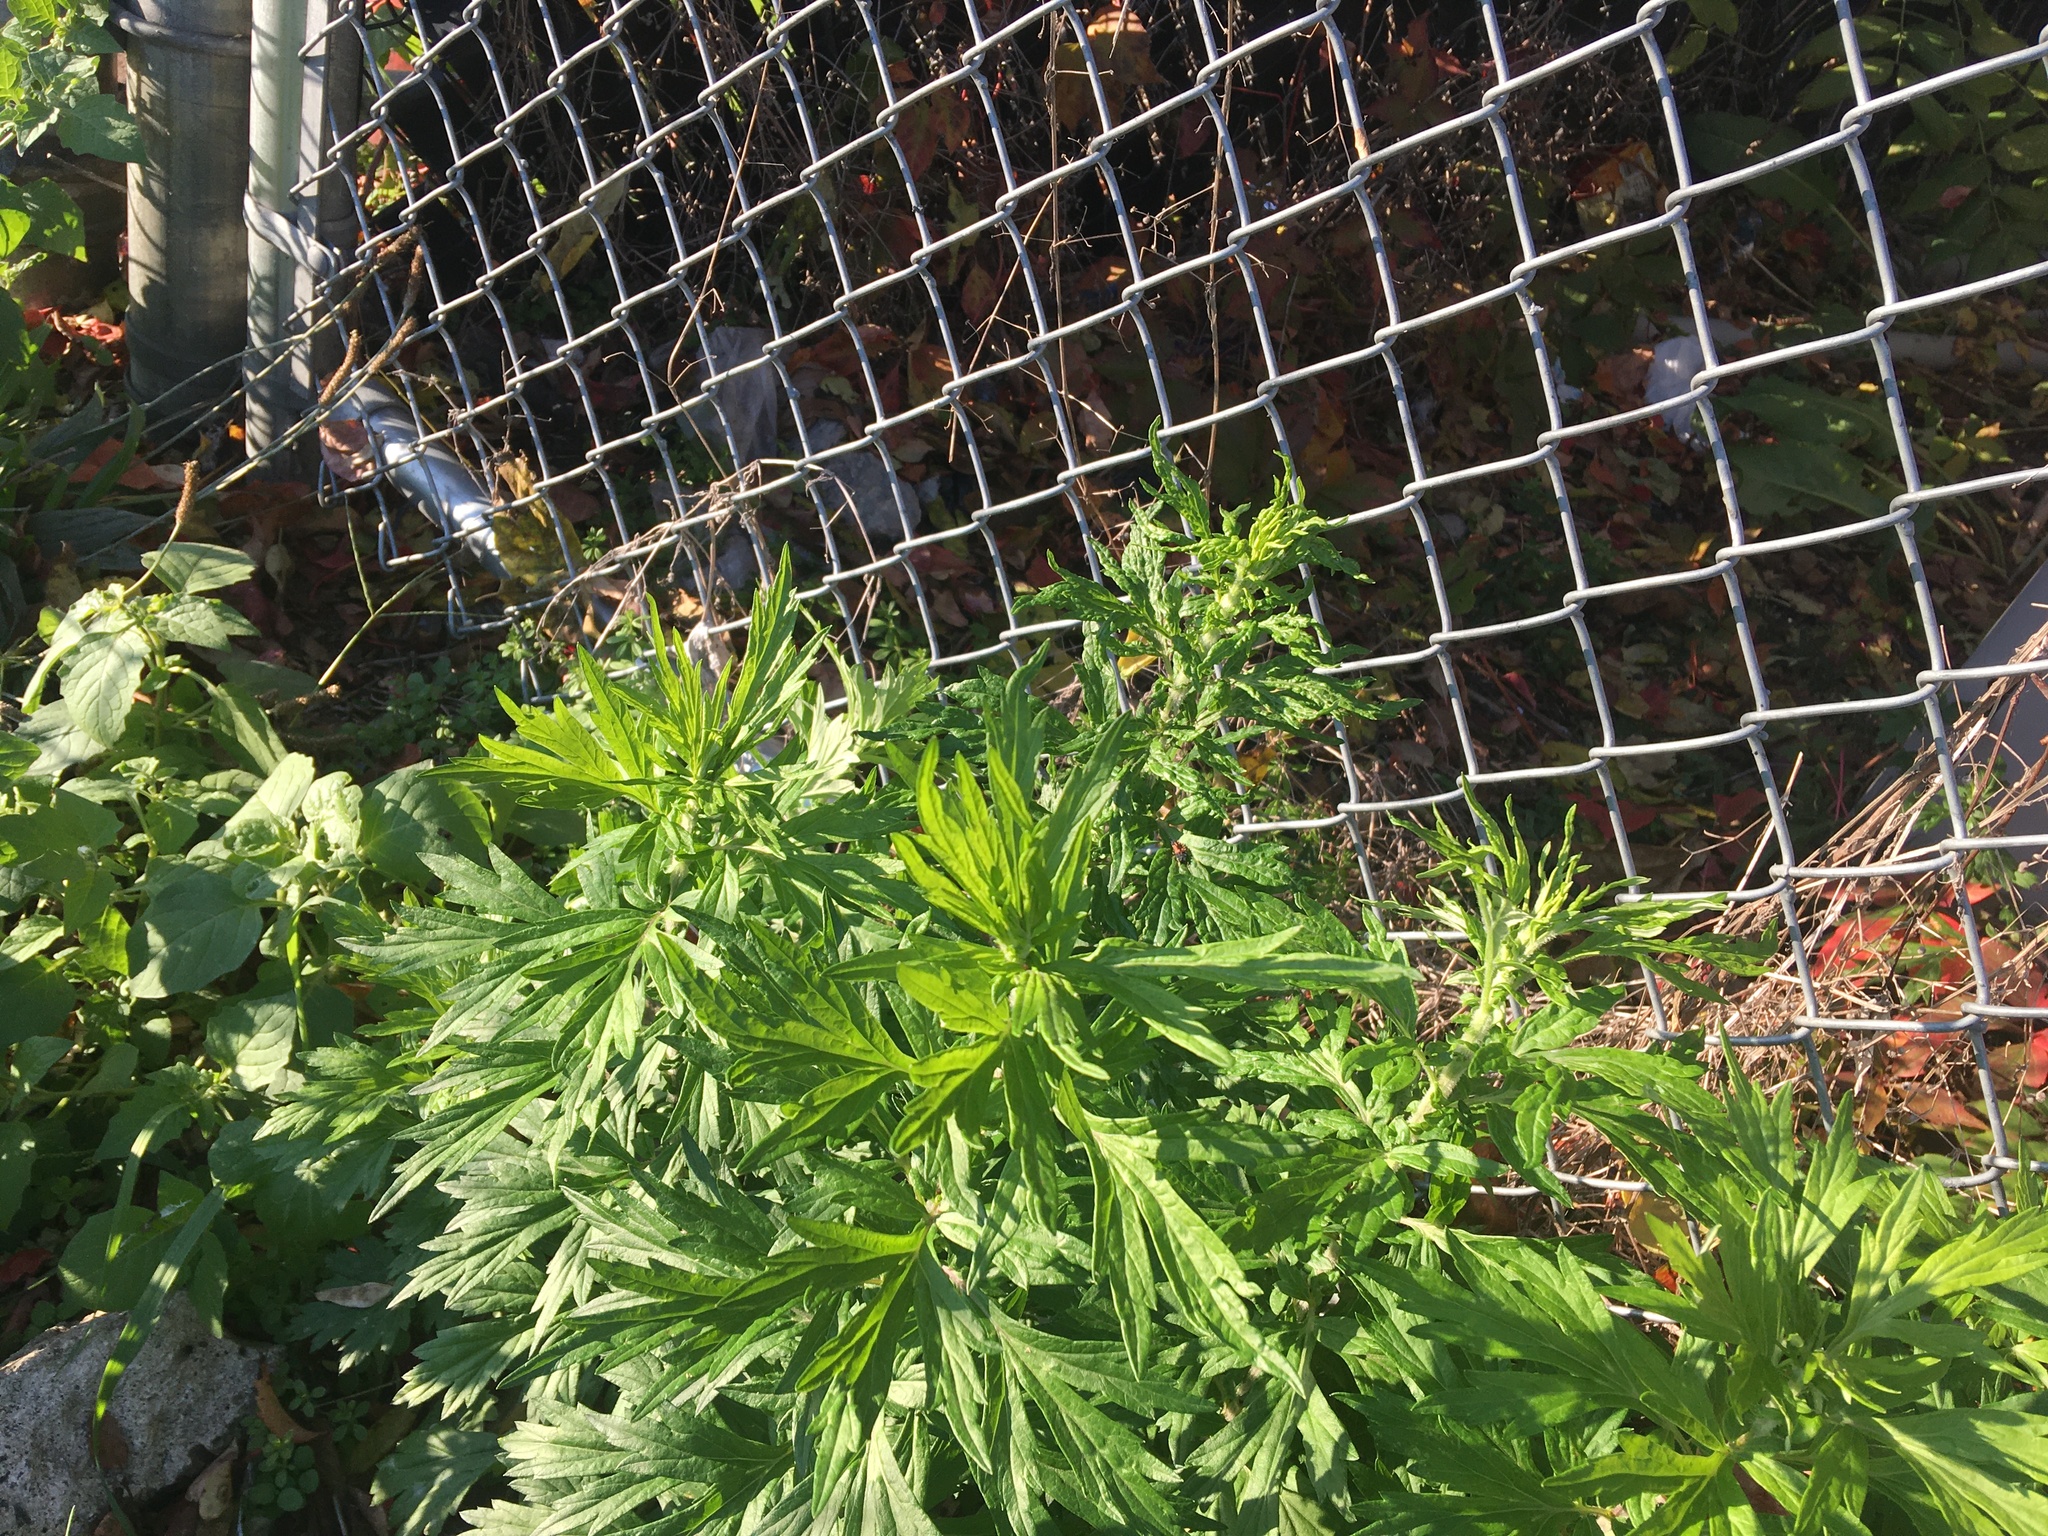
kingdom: Plantae
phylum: Tracheophyta
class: Magnoliopsida
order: Asterales
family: Asteraceae
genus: Artemisia
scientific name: Artemisia vulgaris
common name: Mugwort
